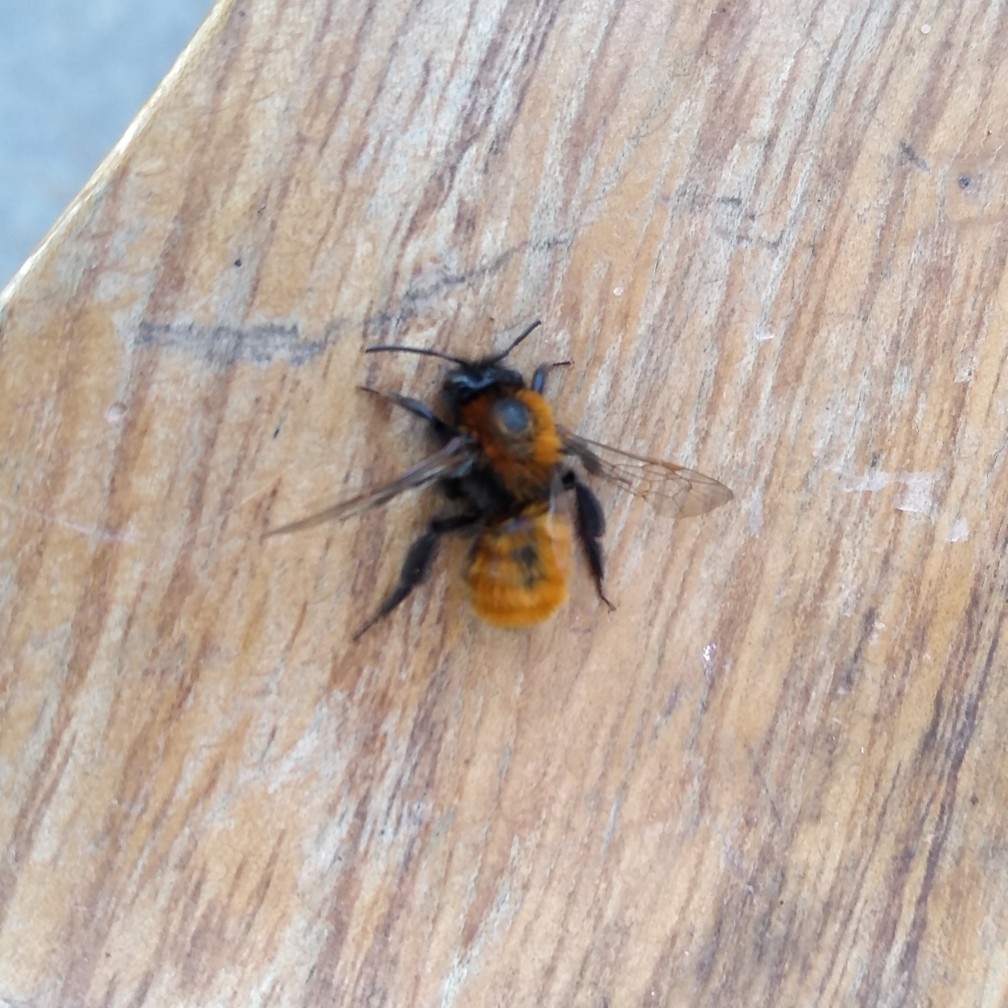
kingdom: Animalia
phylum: Arthropoda
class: Insecta
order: Hymenoptera
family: Andrenidae
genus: Andrena
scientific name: Andrena fulva
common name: Tawny mining bee
